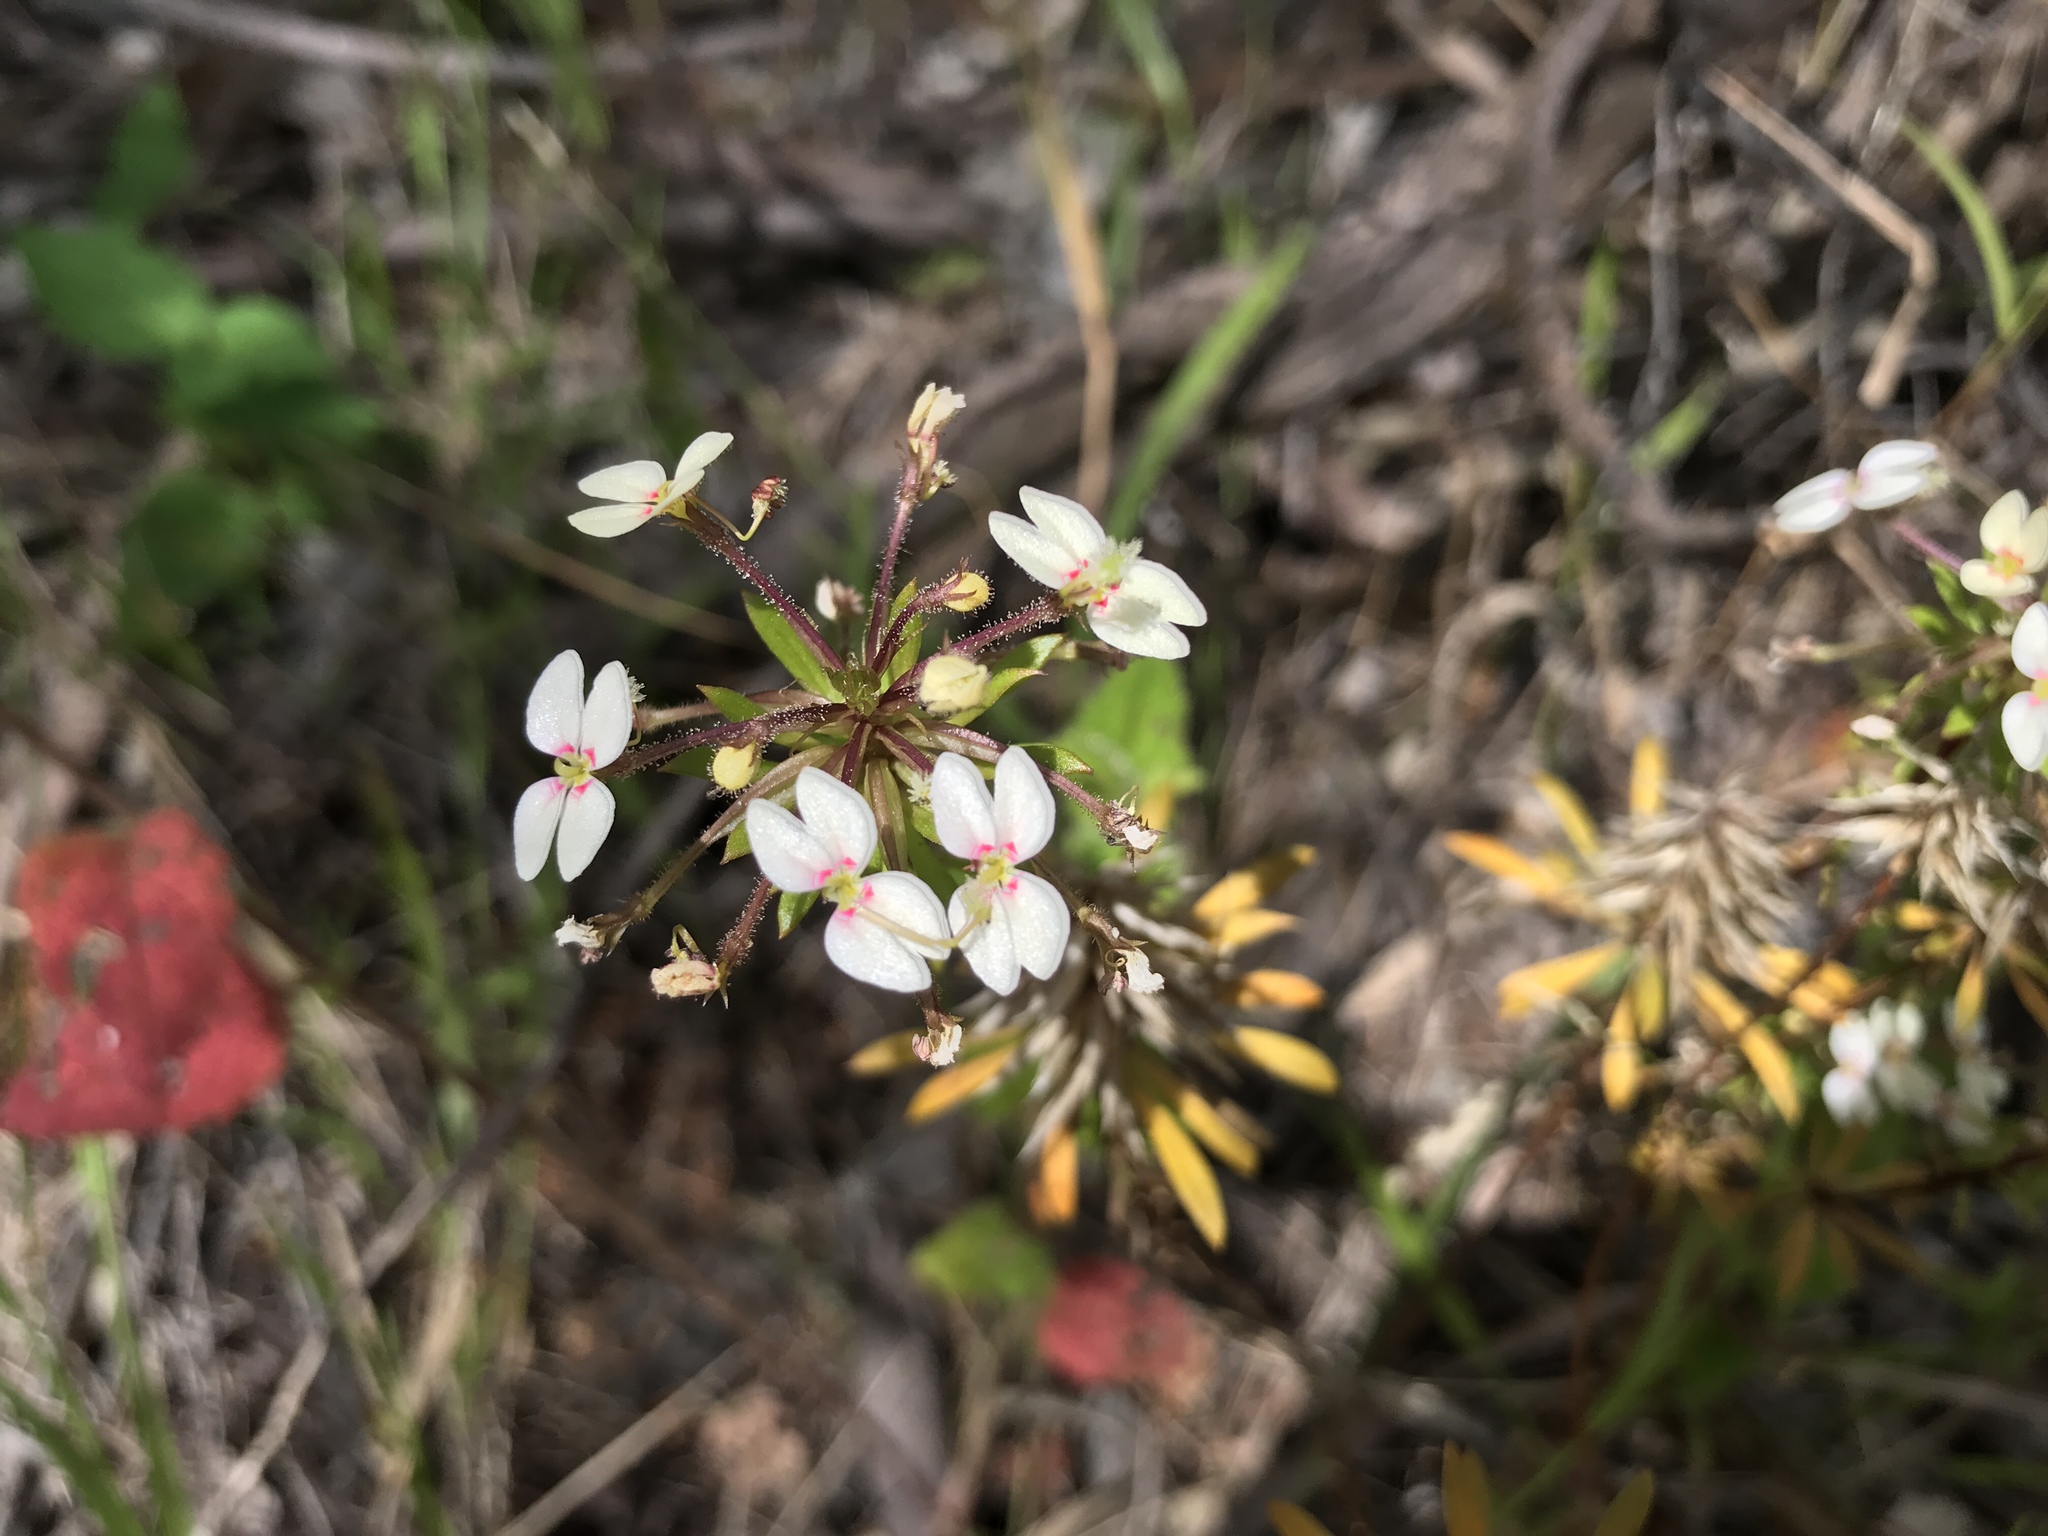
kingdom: Plantae
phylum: Tracheophyta
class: Magnoliopsida
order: Asterales
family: Stylidiaceae
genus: Stylidium
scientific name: Stylidium rhynchocarpum
